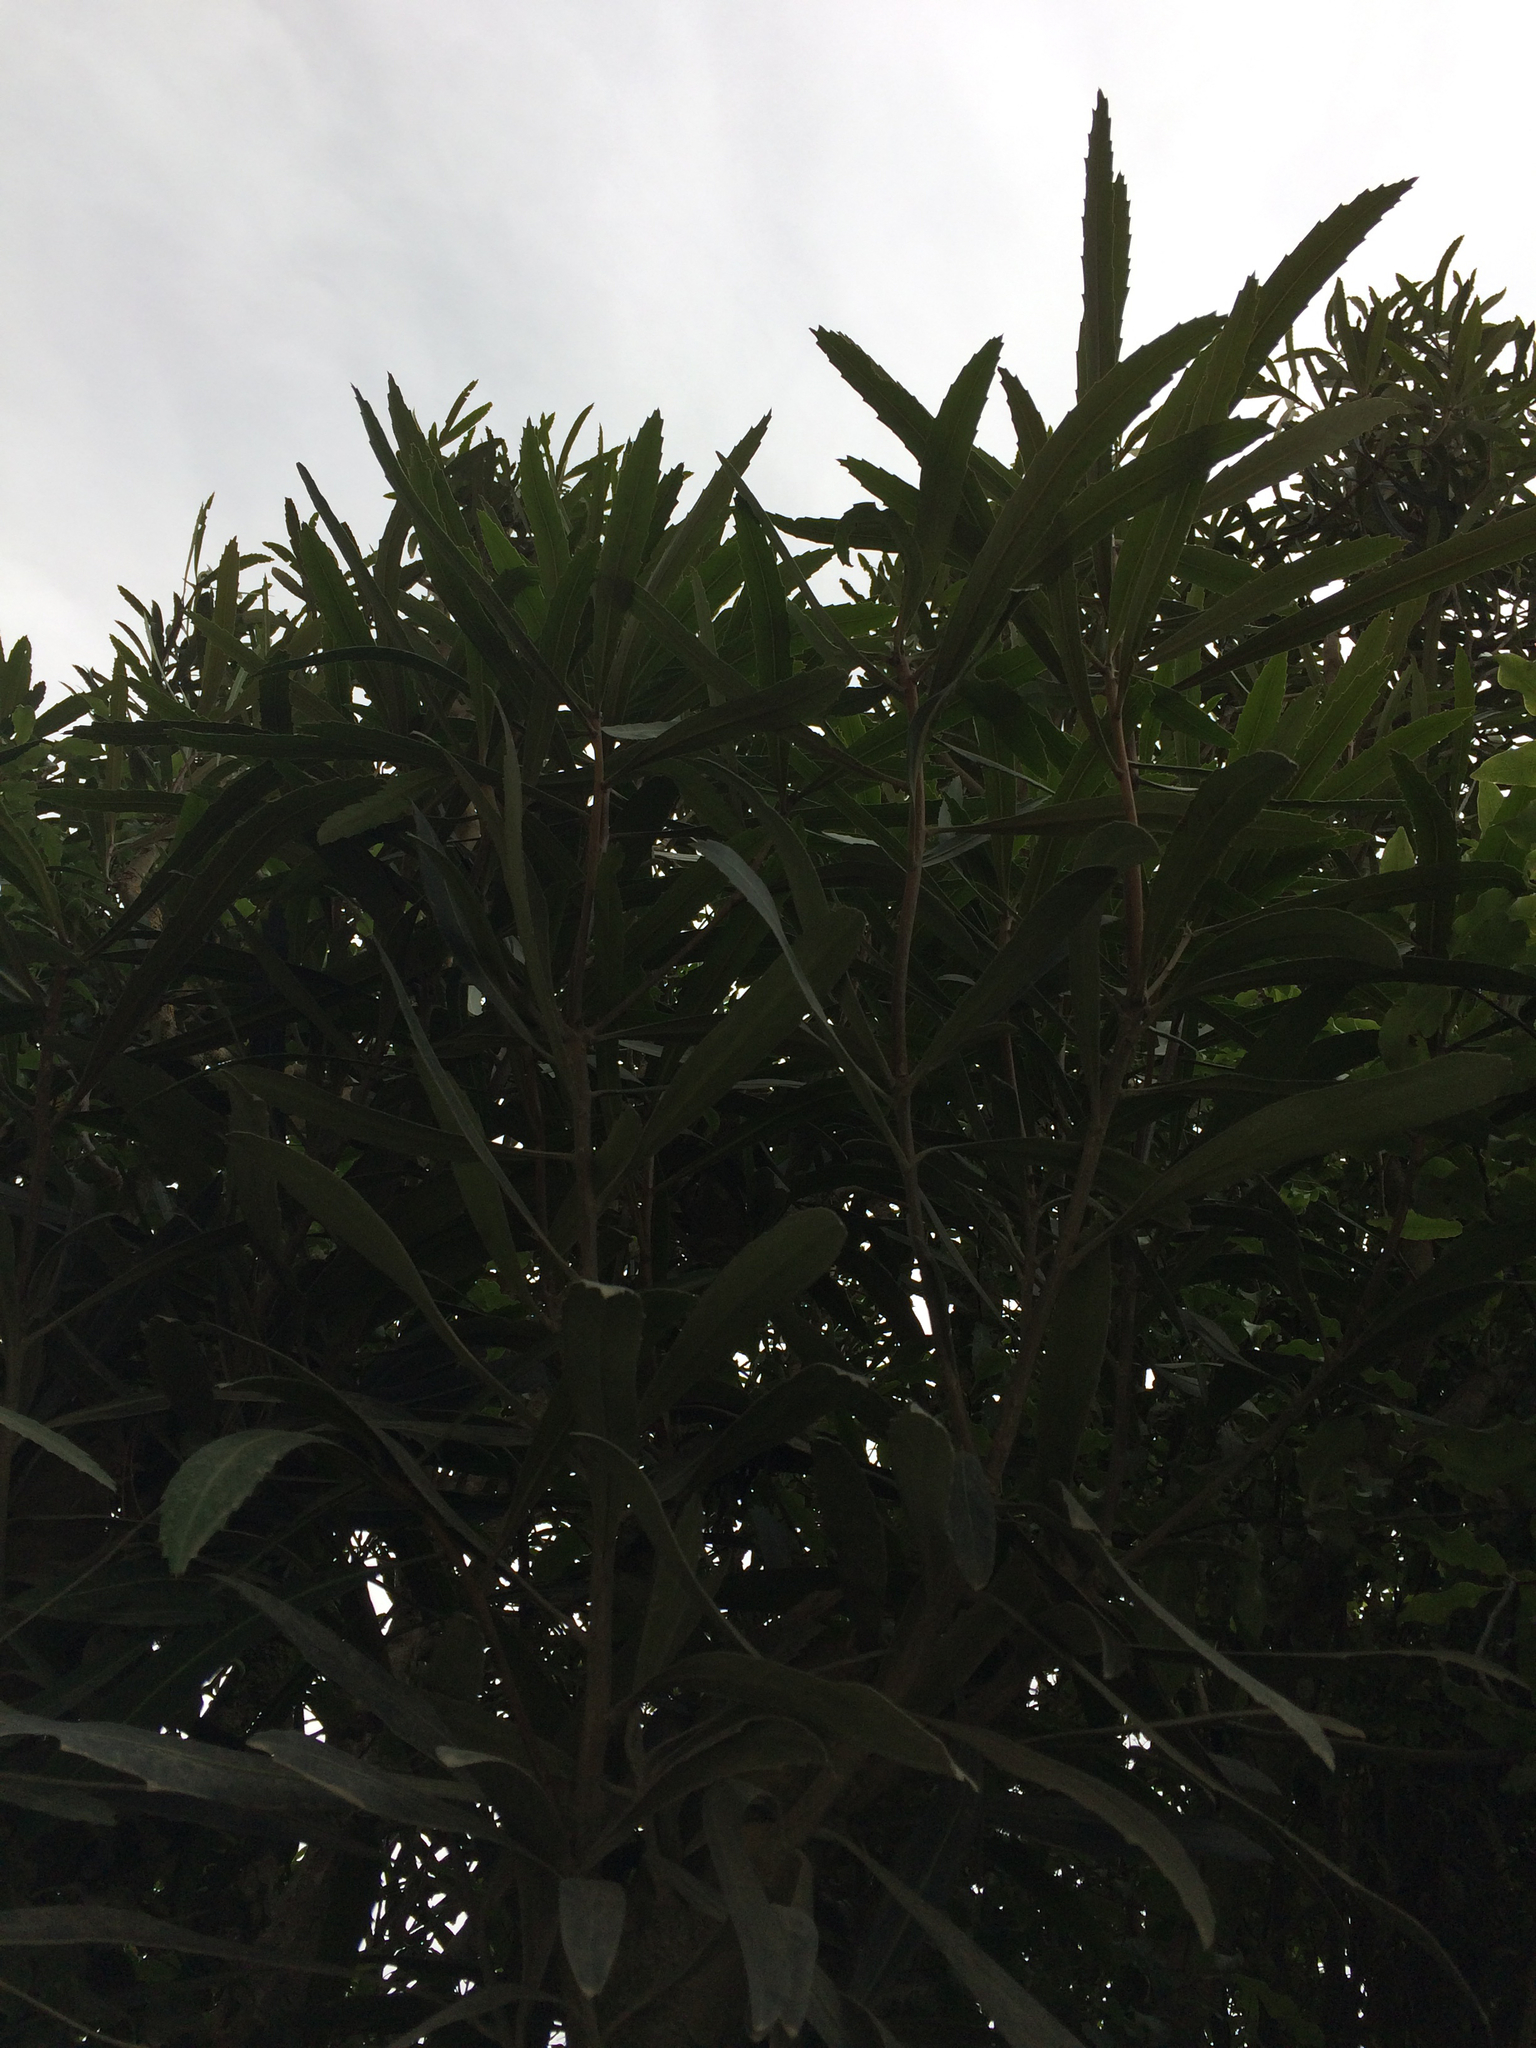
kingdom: Plantae
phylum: Tracheophyta
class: Magnoliopsida
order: Apiales
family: Araliaceae
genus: Pseudopanax
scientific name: Pseudopanax crassifolius
